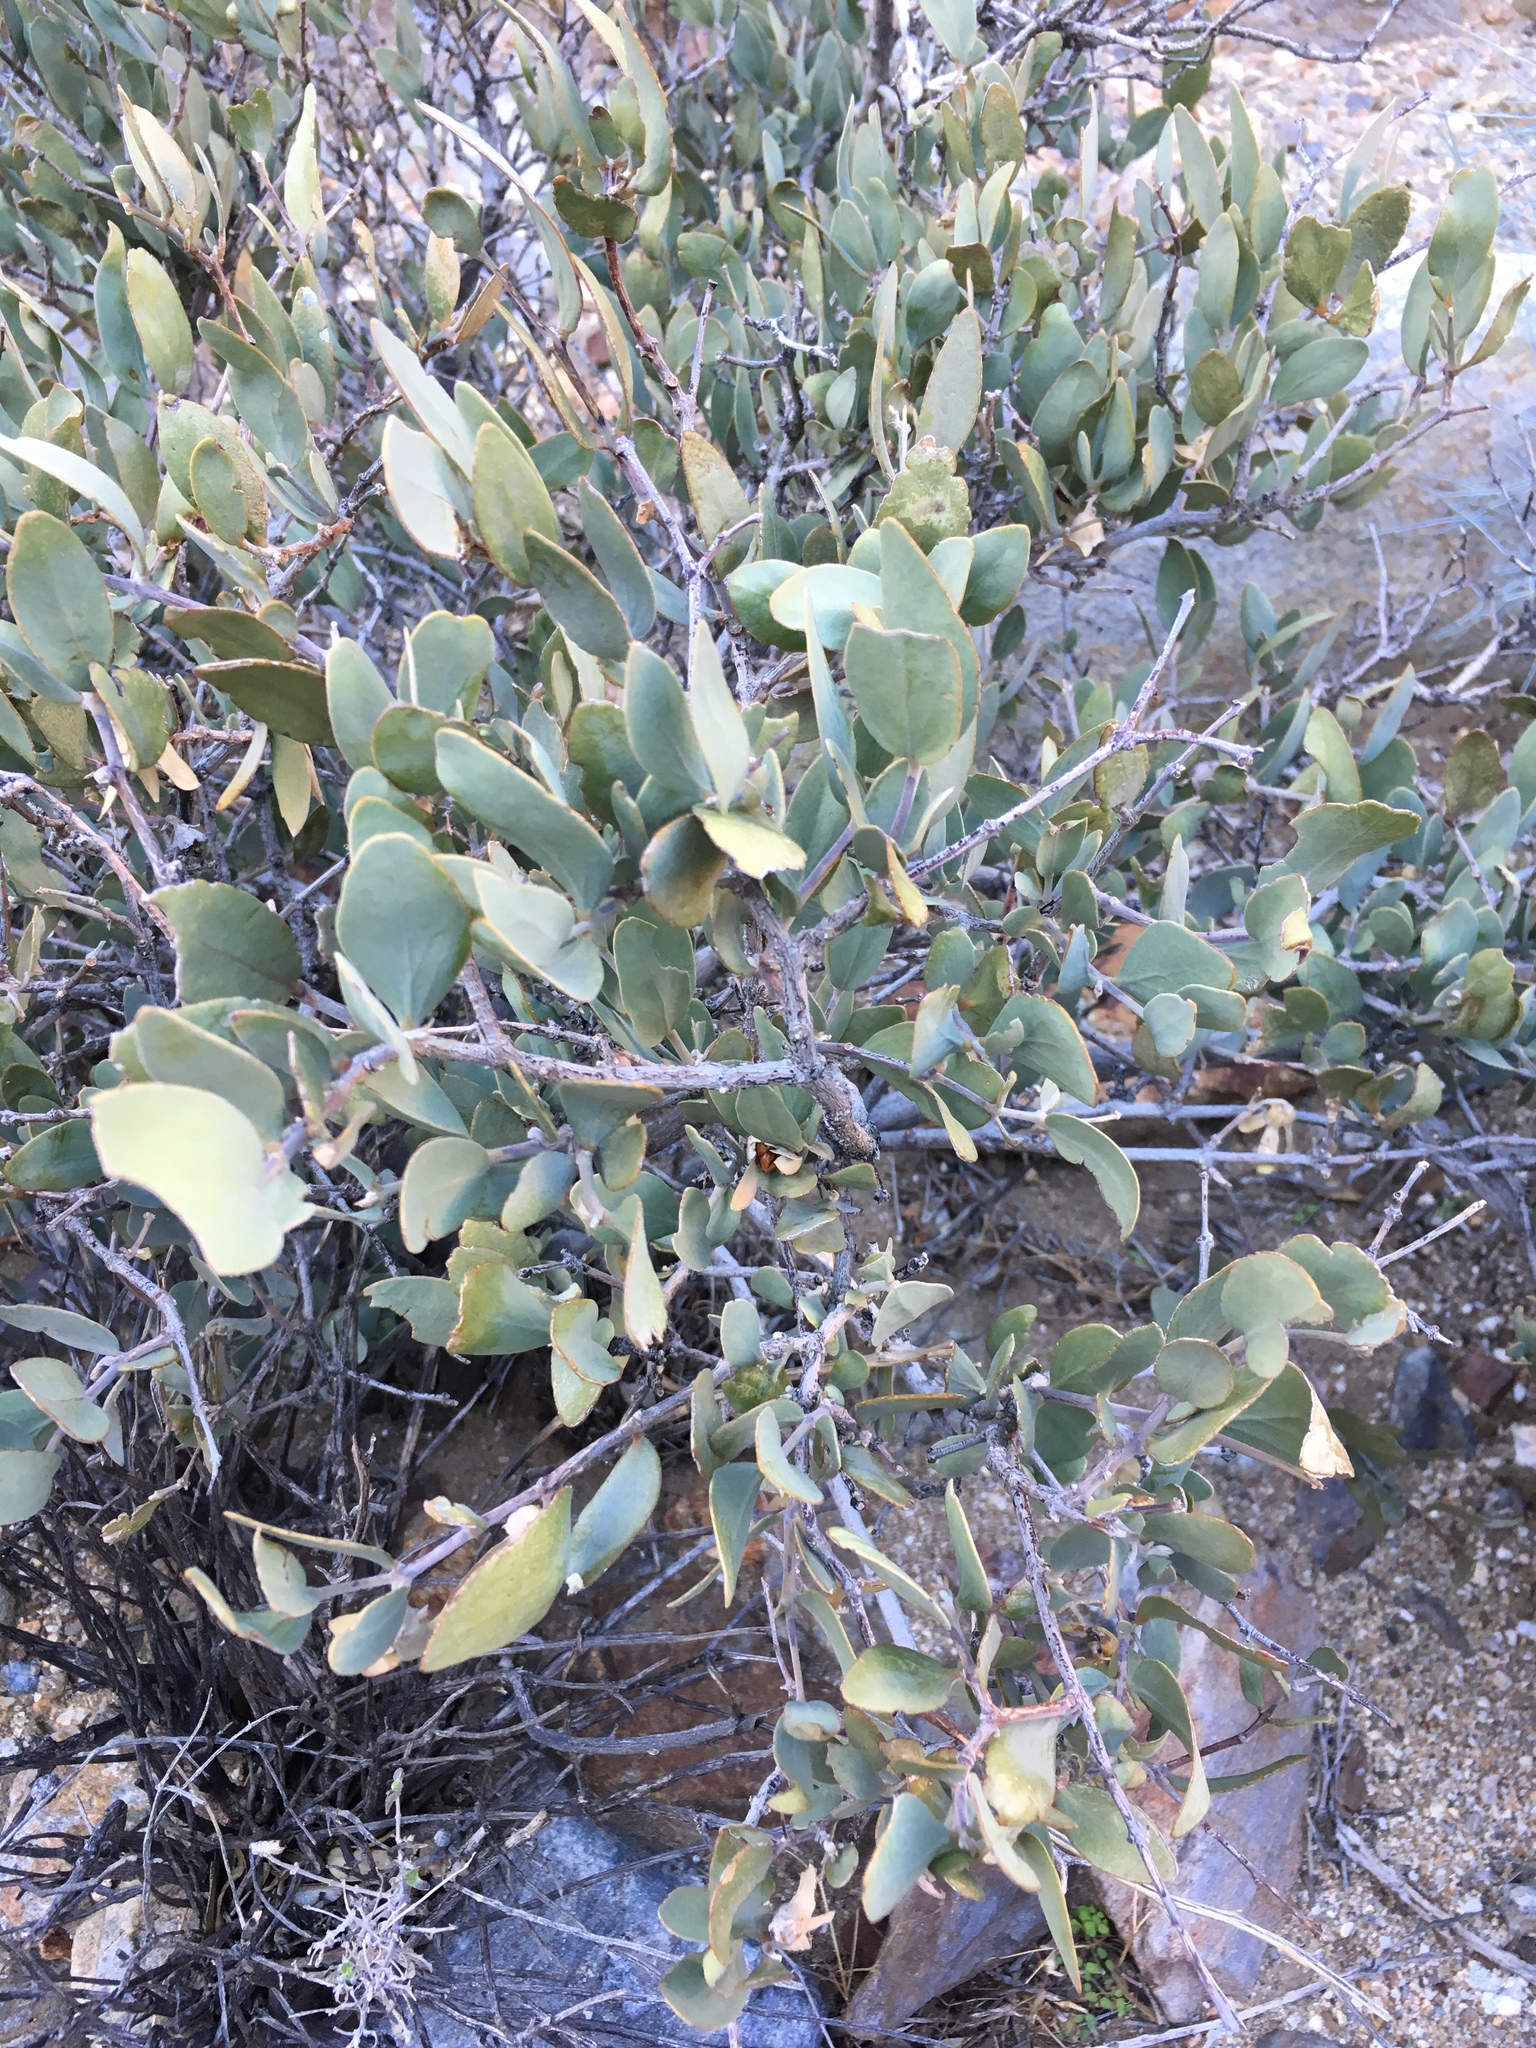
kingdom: Plantae
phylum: Tracheophyta
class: Magnoliopsida
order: Caryophyllales
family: Simmondsiaceae
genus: Simmondsia
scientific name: Simmondsia chinensis
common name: Jojoba
